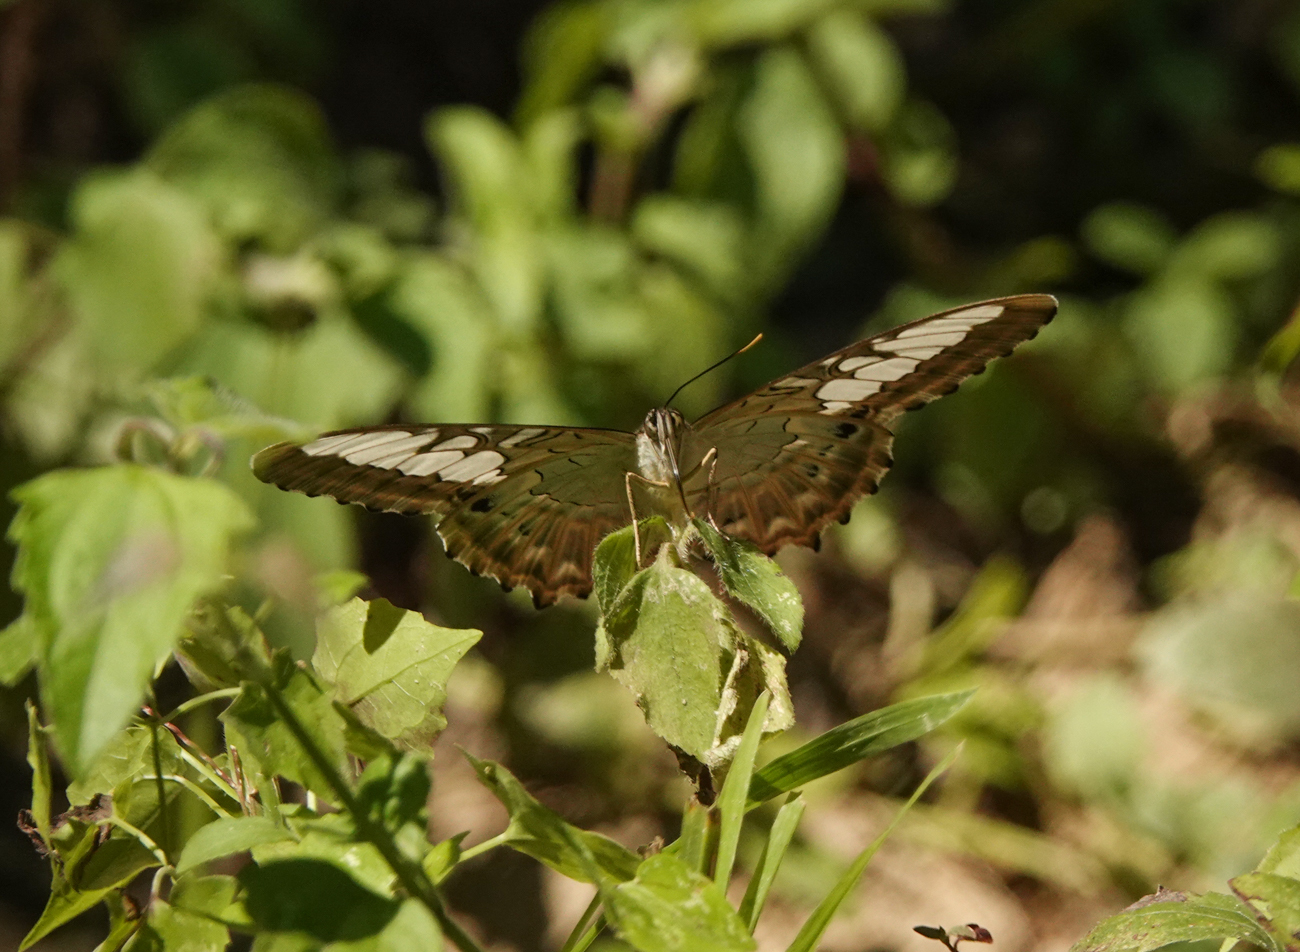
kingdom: Animalia
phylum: Arthropoda
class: Insecta
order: Lepidoptera
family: Nymphalidae
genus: Kallima
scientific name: Kallima sylvia
